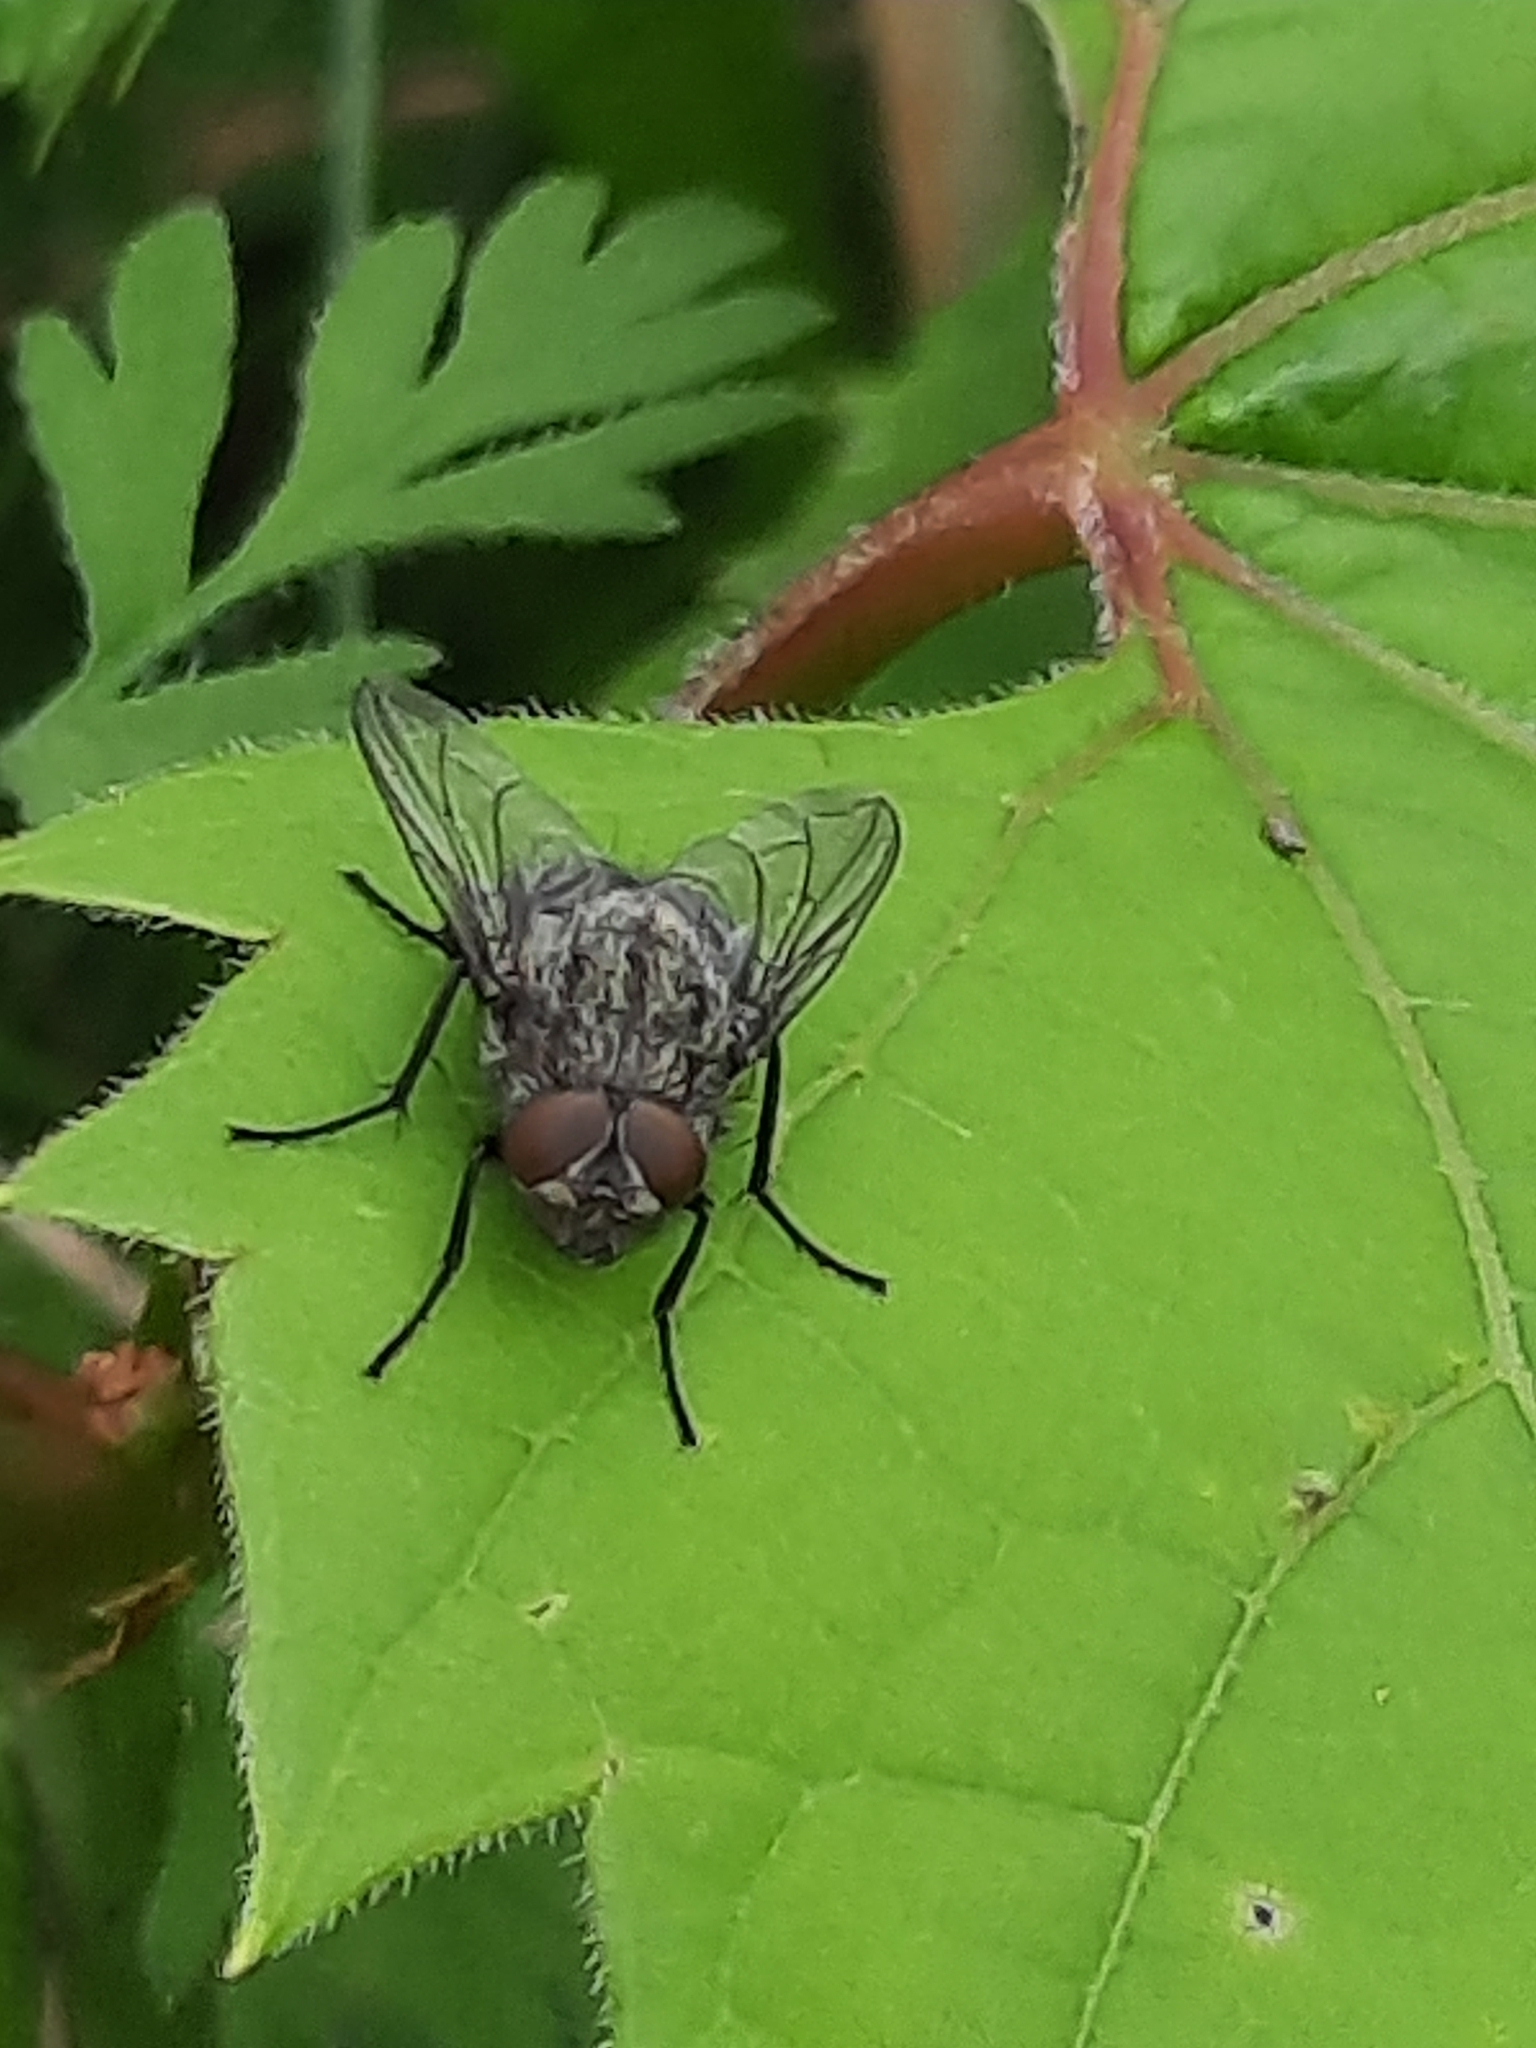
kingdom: Animalia
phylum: Arthropoda
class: Insecta
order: Diptera
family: Polleniidae
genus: Pollenia
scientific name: Pollenia
